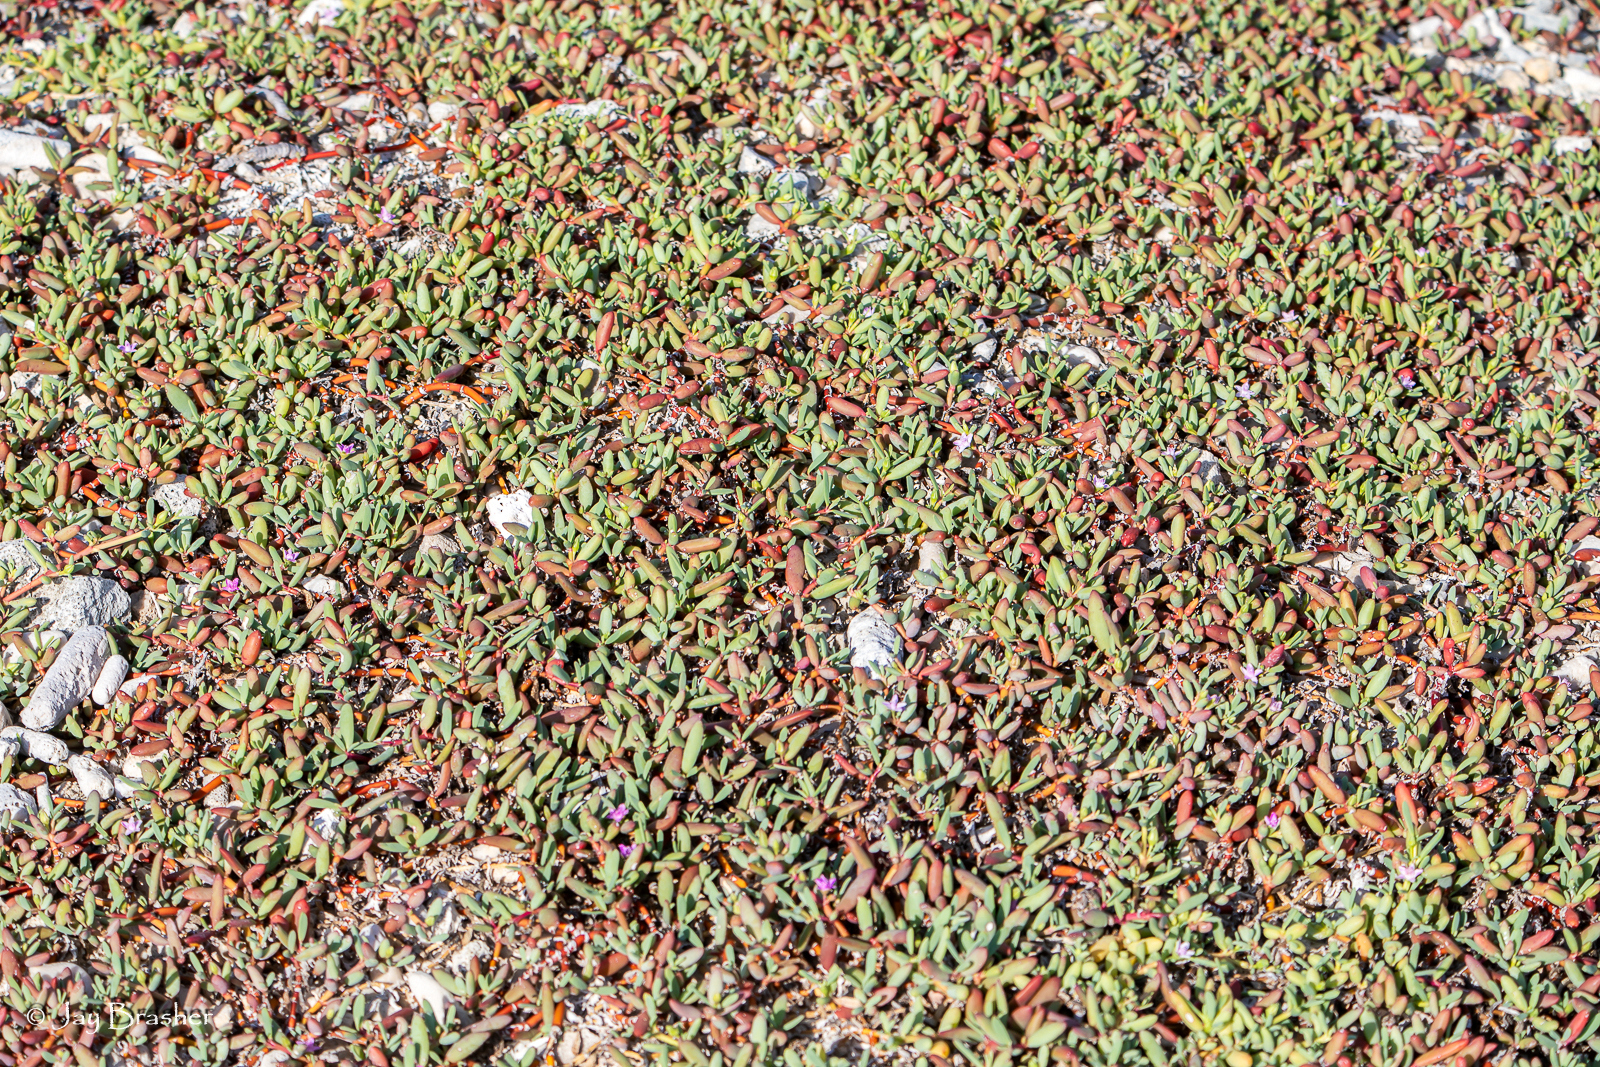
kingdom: Plantae
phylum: Tracheophyta
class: Magnoliopsida
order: Caryophyllales
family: Aizoaceae
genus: Sesuvium
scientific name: Sesuvium portulacastrum
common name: Sea-purslane
